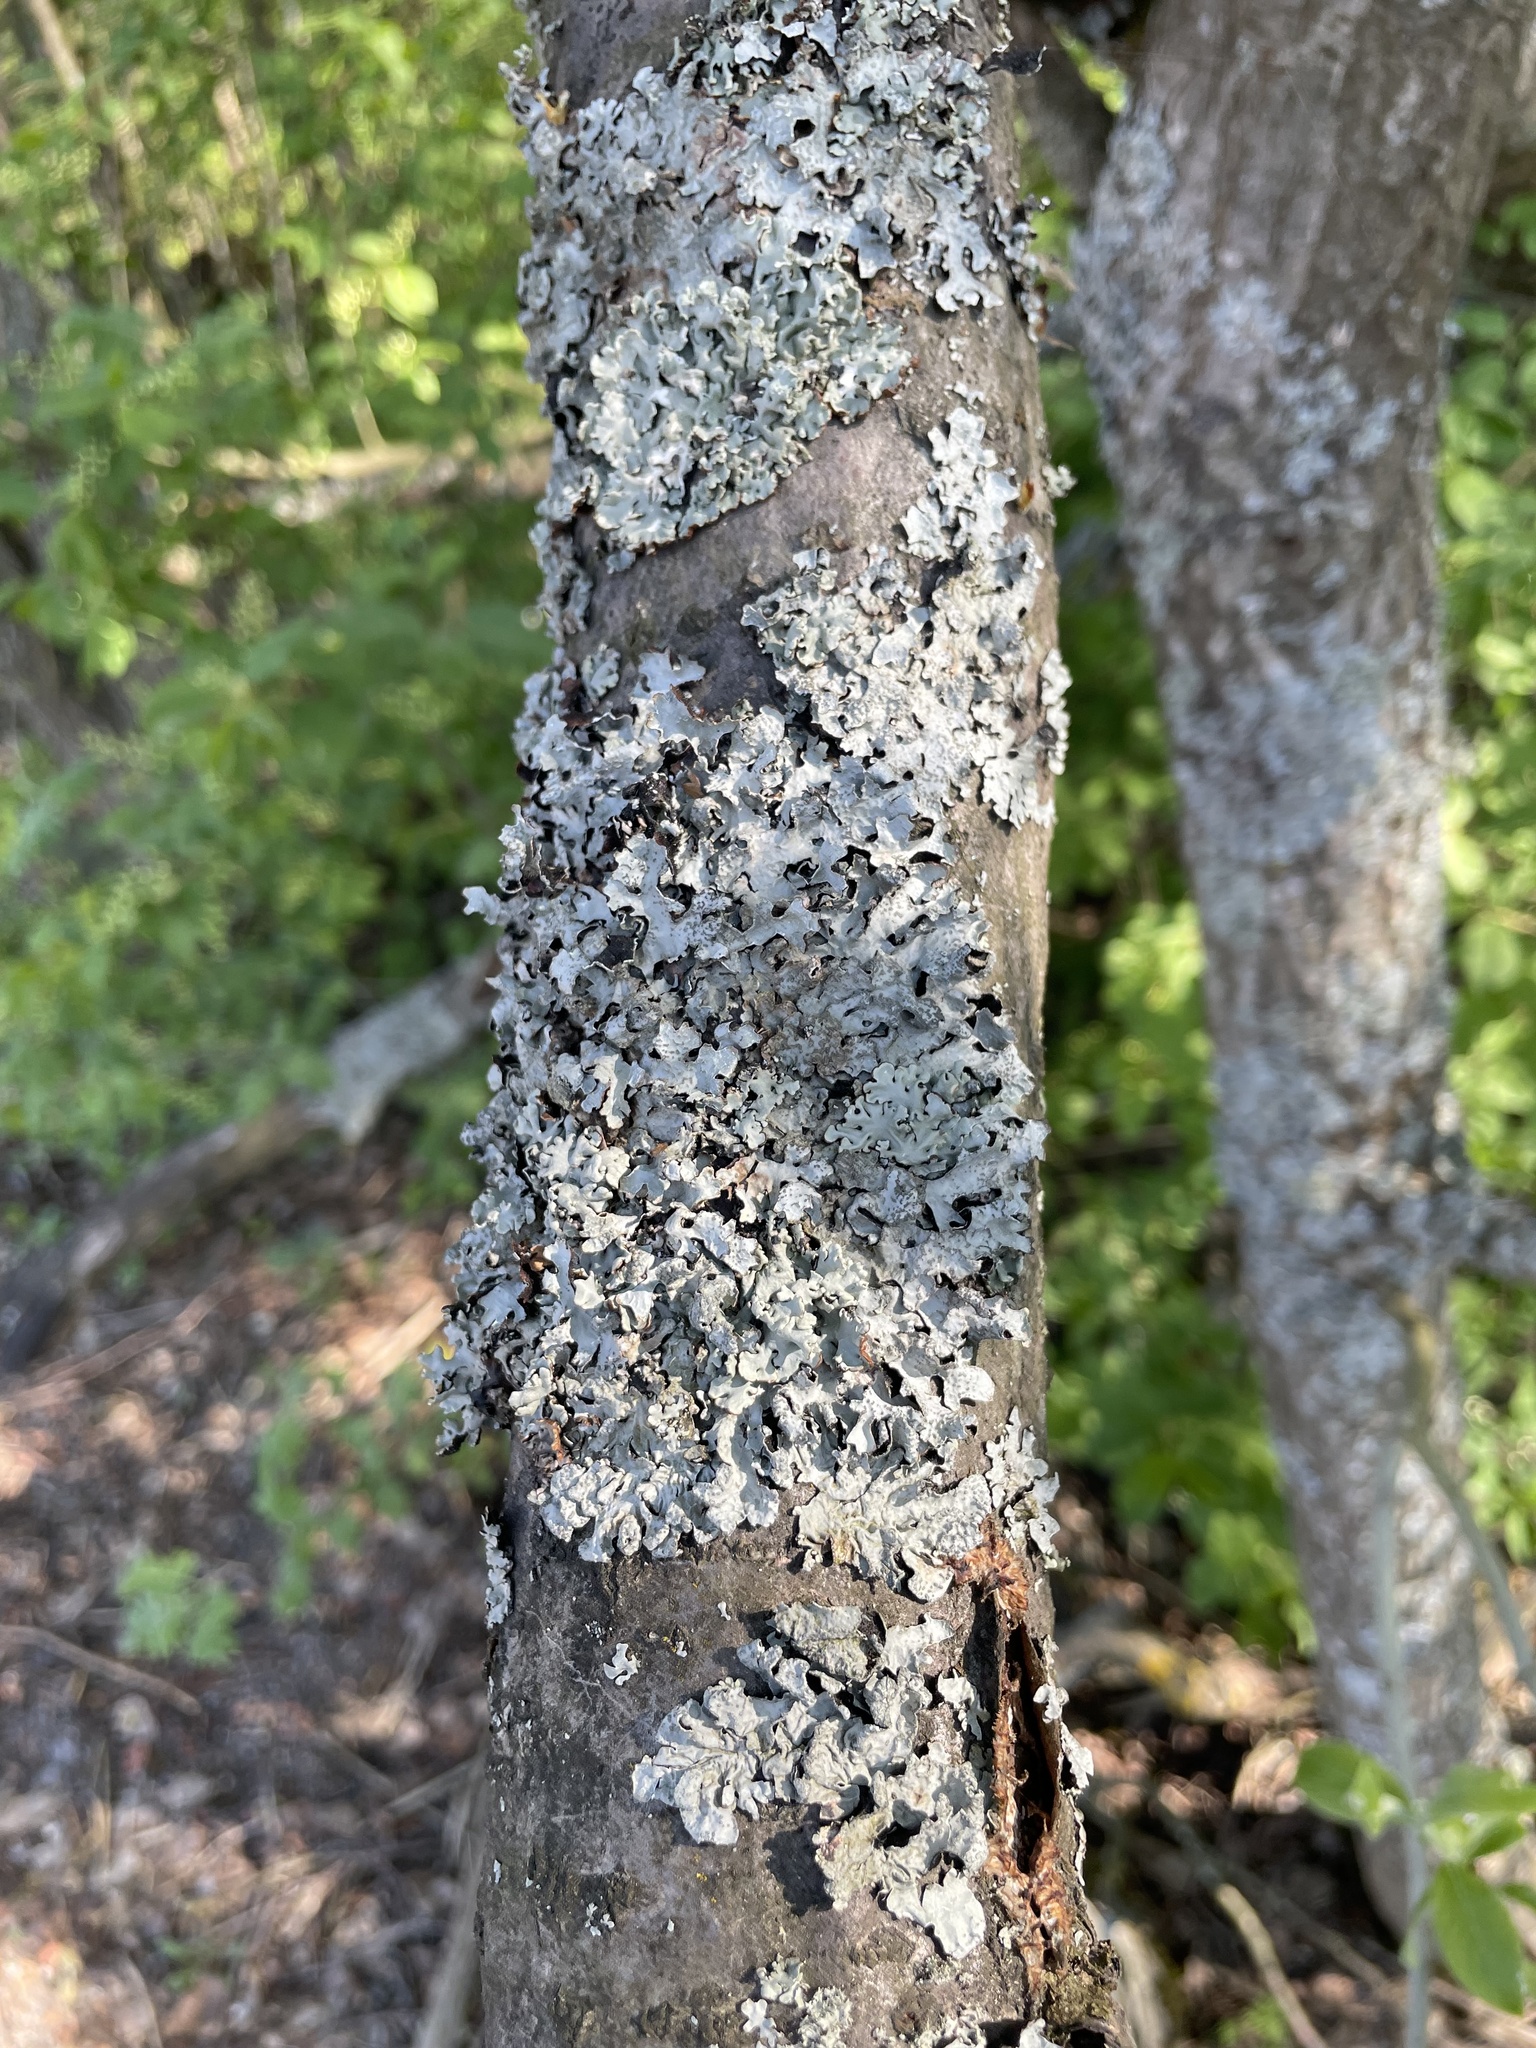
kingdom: Fungi
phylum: Ascomycota
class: Lecanoromycetes
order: Lecanorales
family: Parmeliaceae
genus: Parmelia
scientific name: Parmelia sulcata
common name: Netted shield lichen
